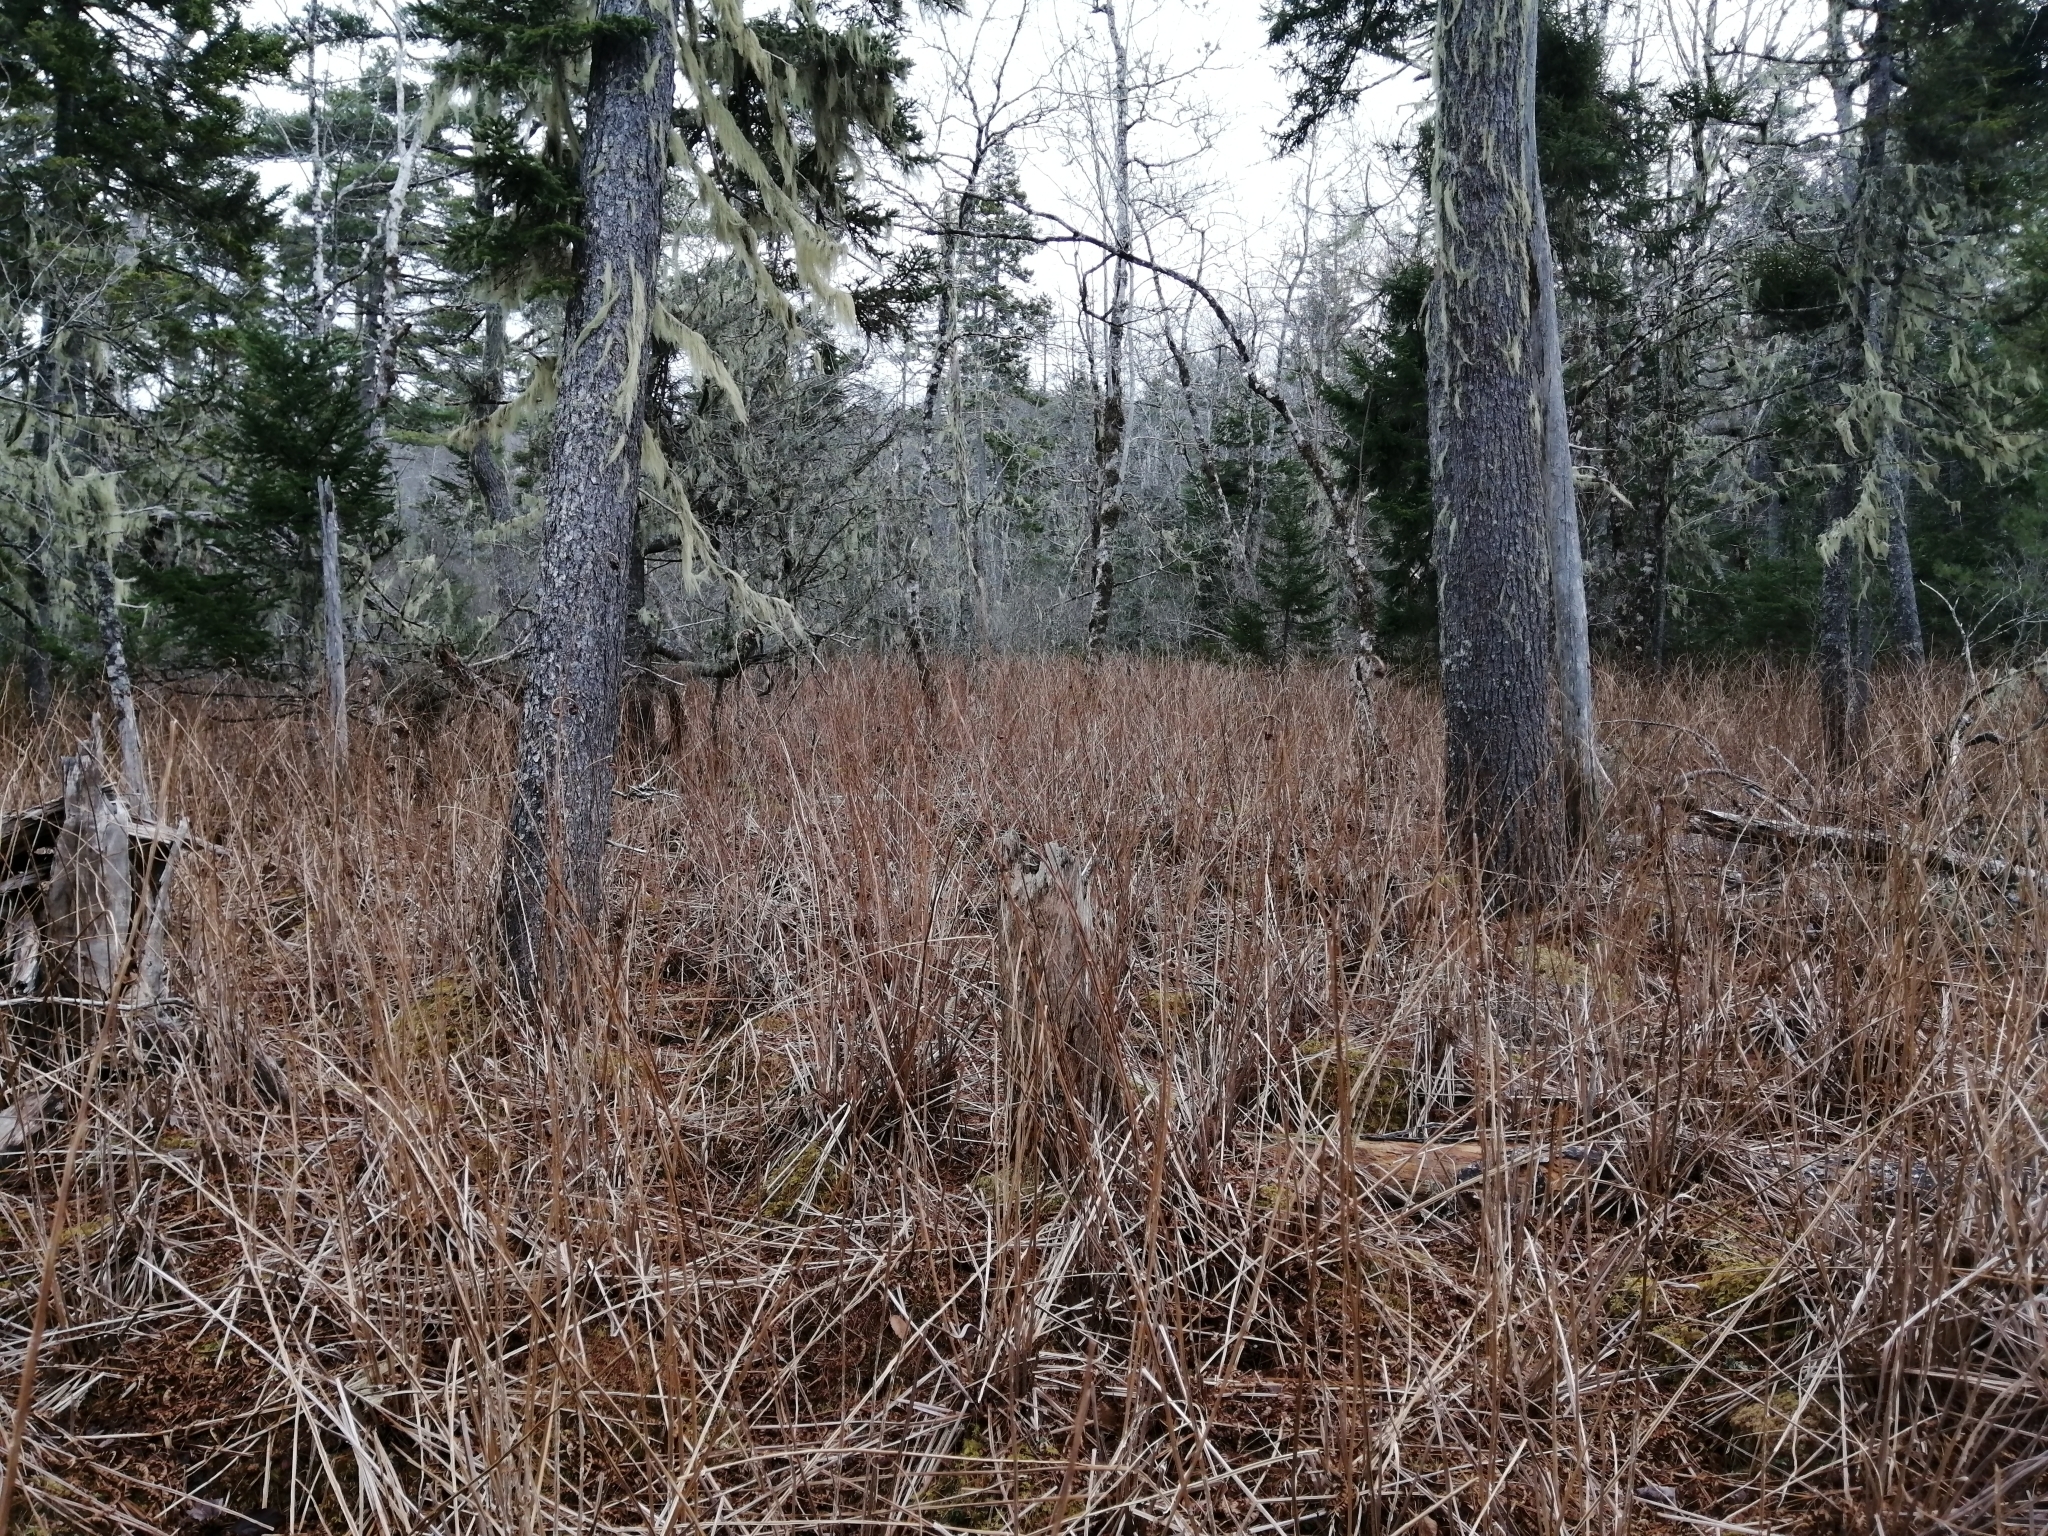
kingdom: Plantae
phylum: Tracheophyta
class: Polypodiopsida
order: Osmundales
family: Osmundaceae
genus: Osmundastrum
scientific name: Osmundastrum cinnamomeum
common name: Cinnamon fern
